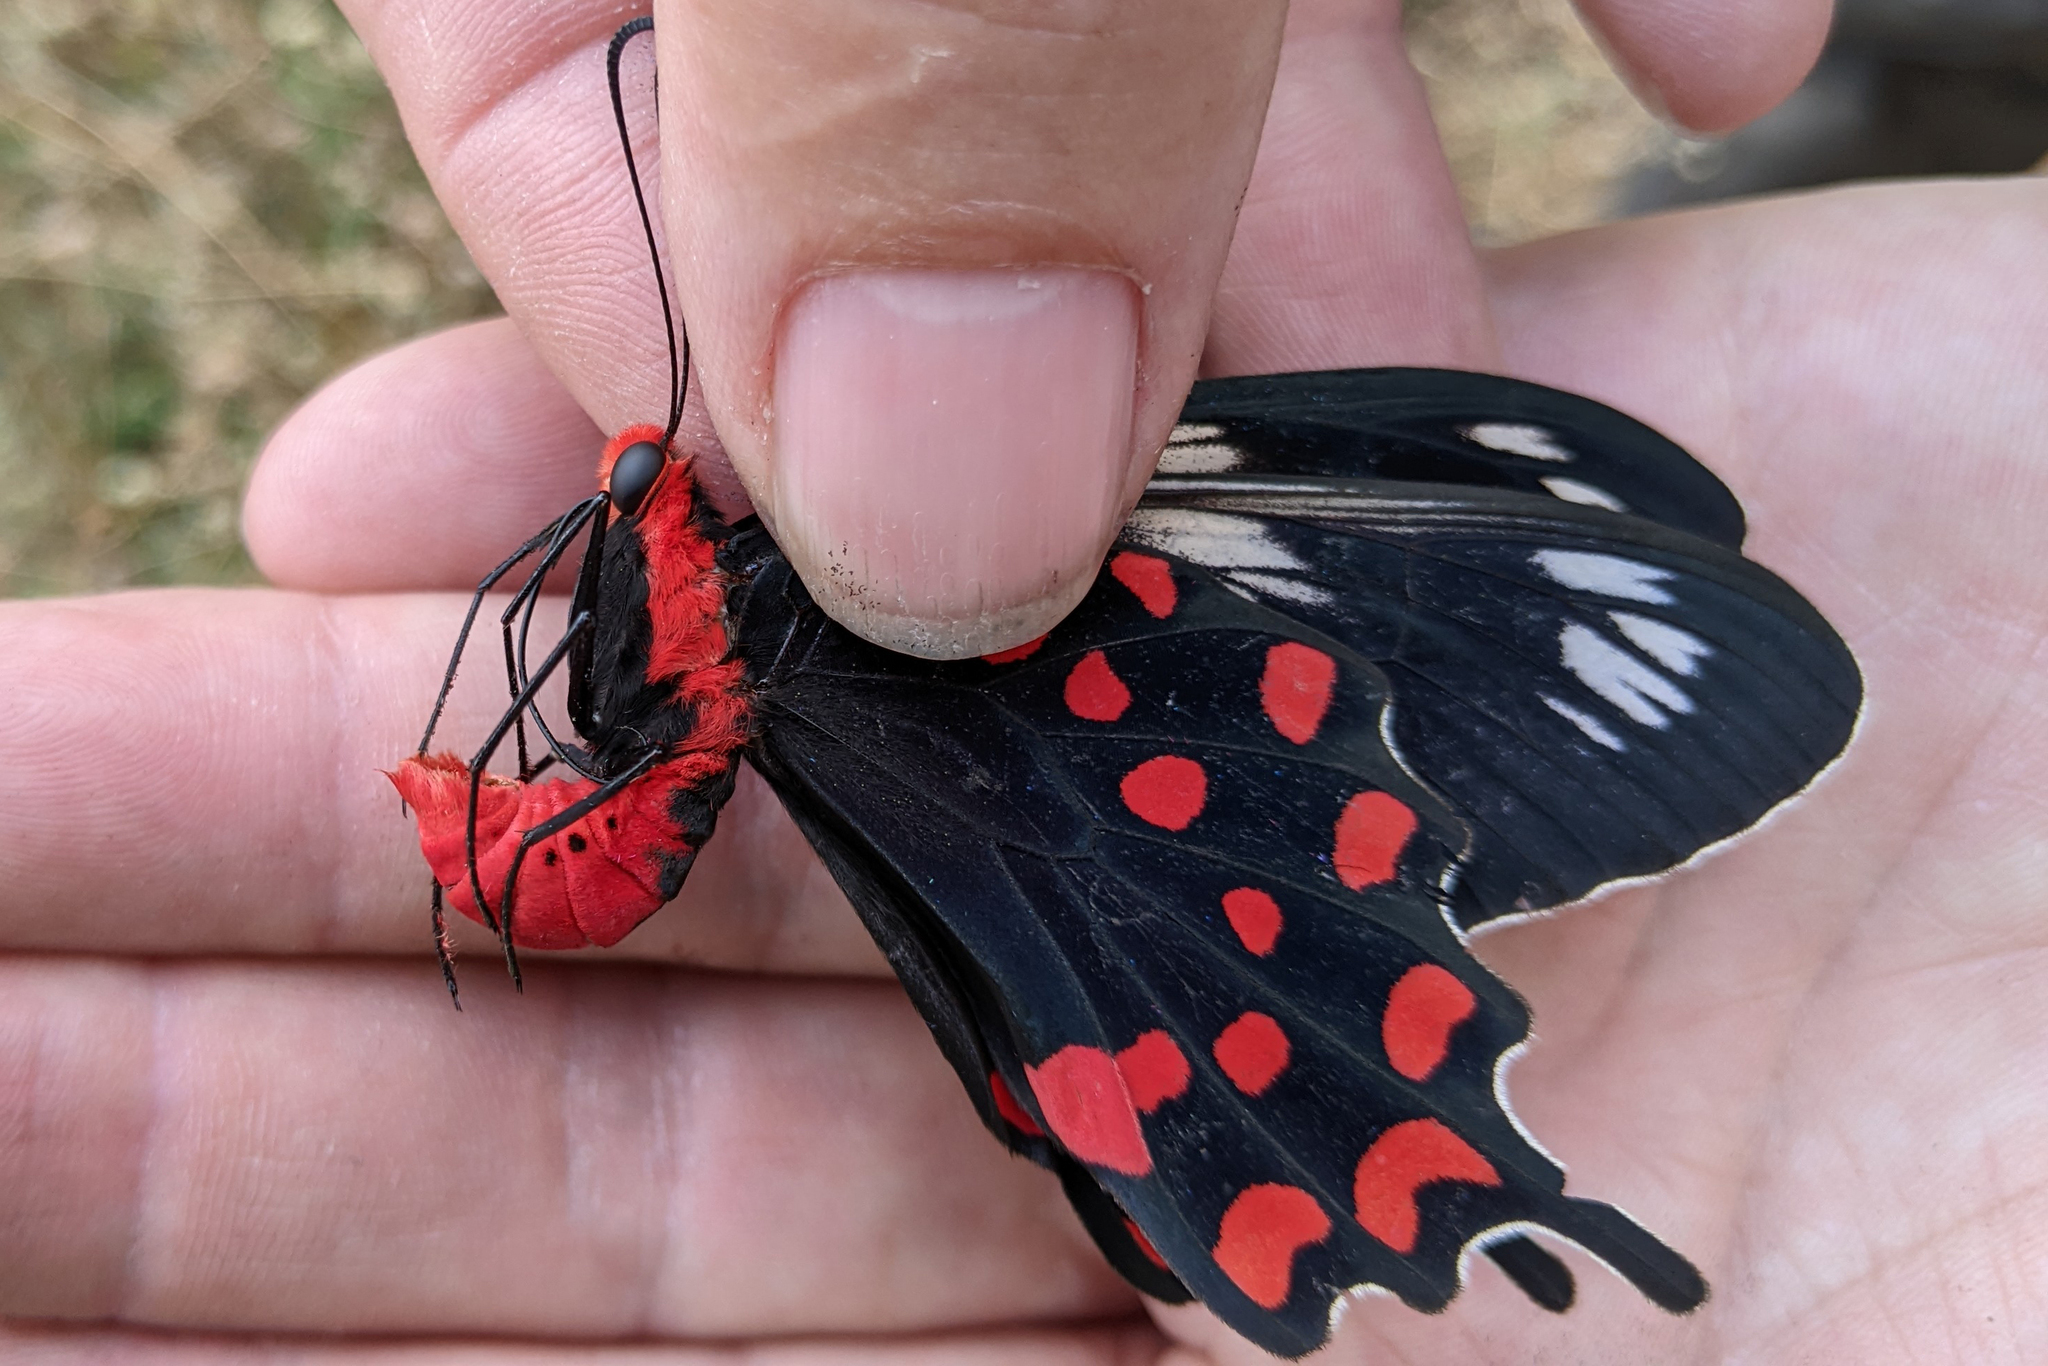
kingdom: Animalia
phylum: Arthropoda
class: Insecta
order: Lepidoptera
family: Papilionidae
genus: Pachliopta
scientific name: Pachliopta hector
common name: Crimson rose
